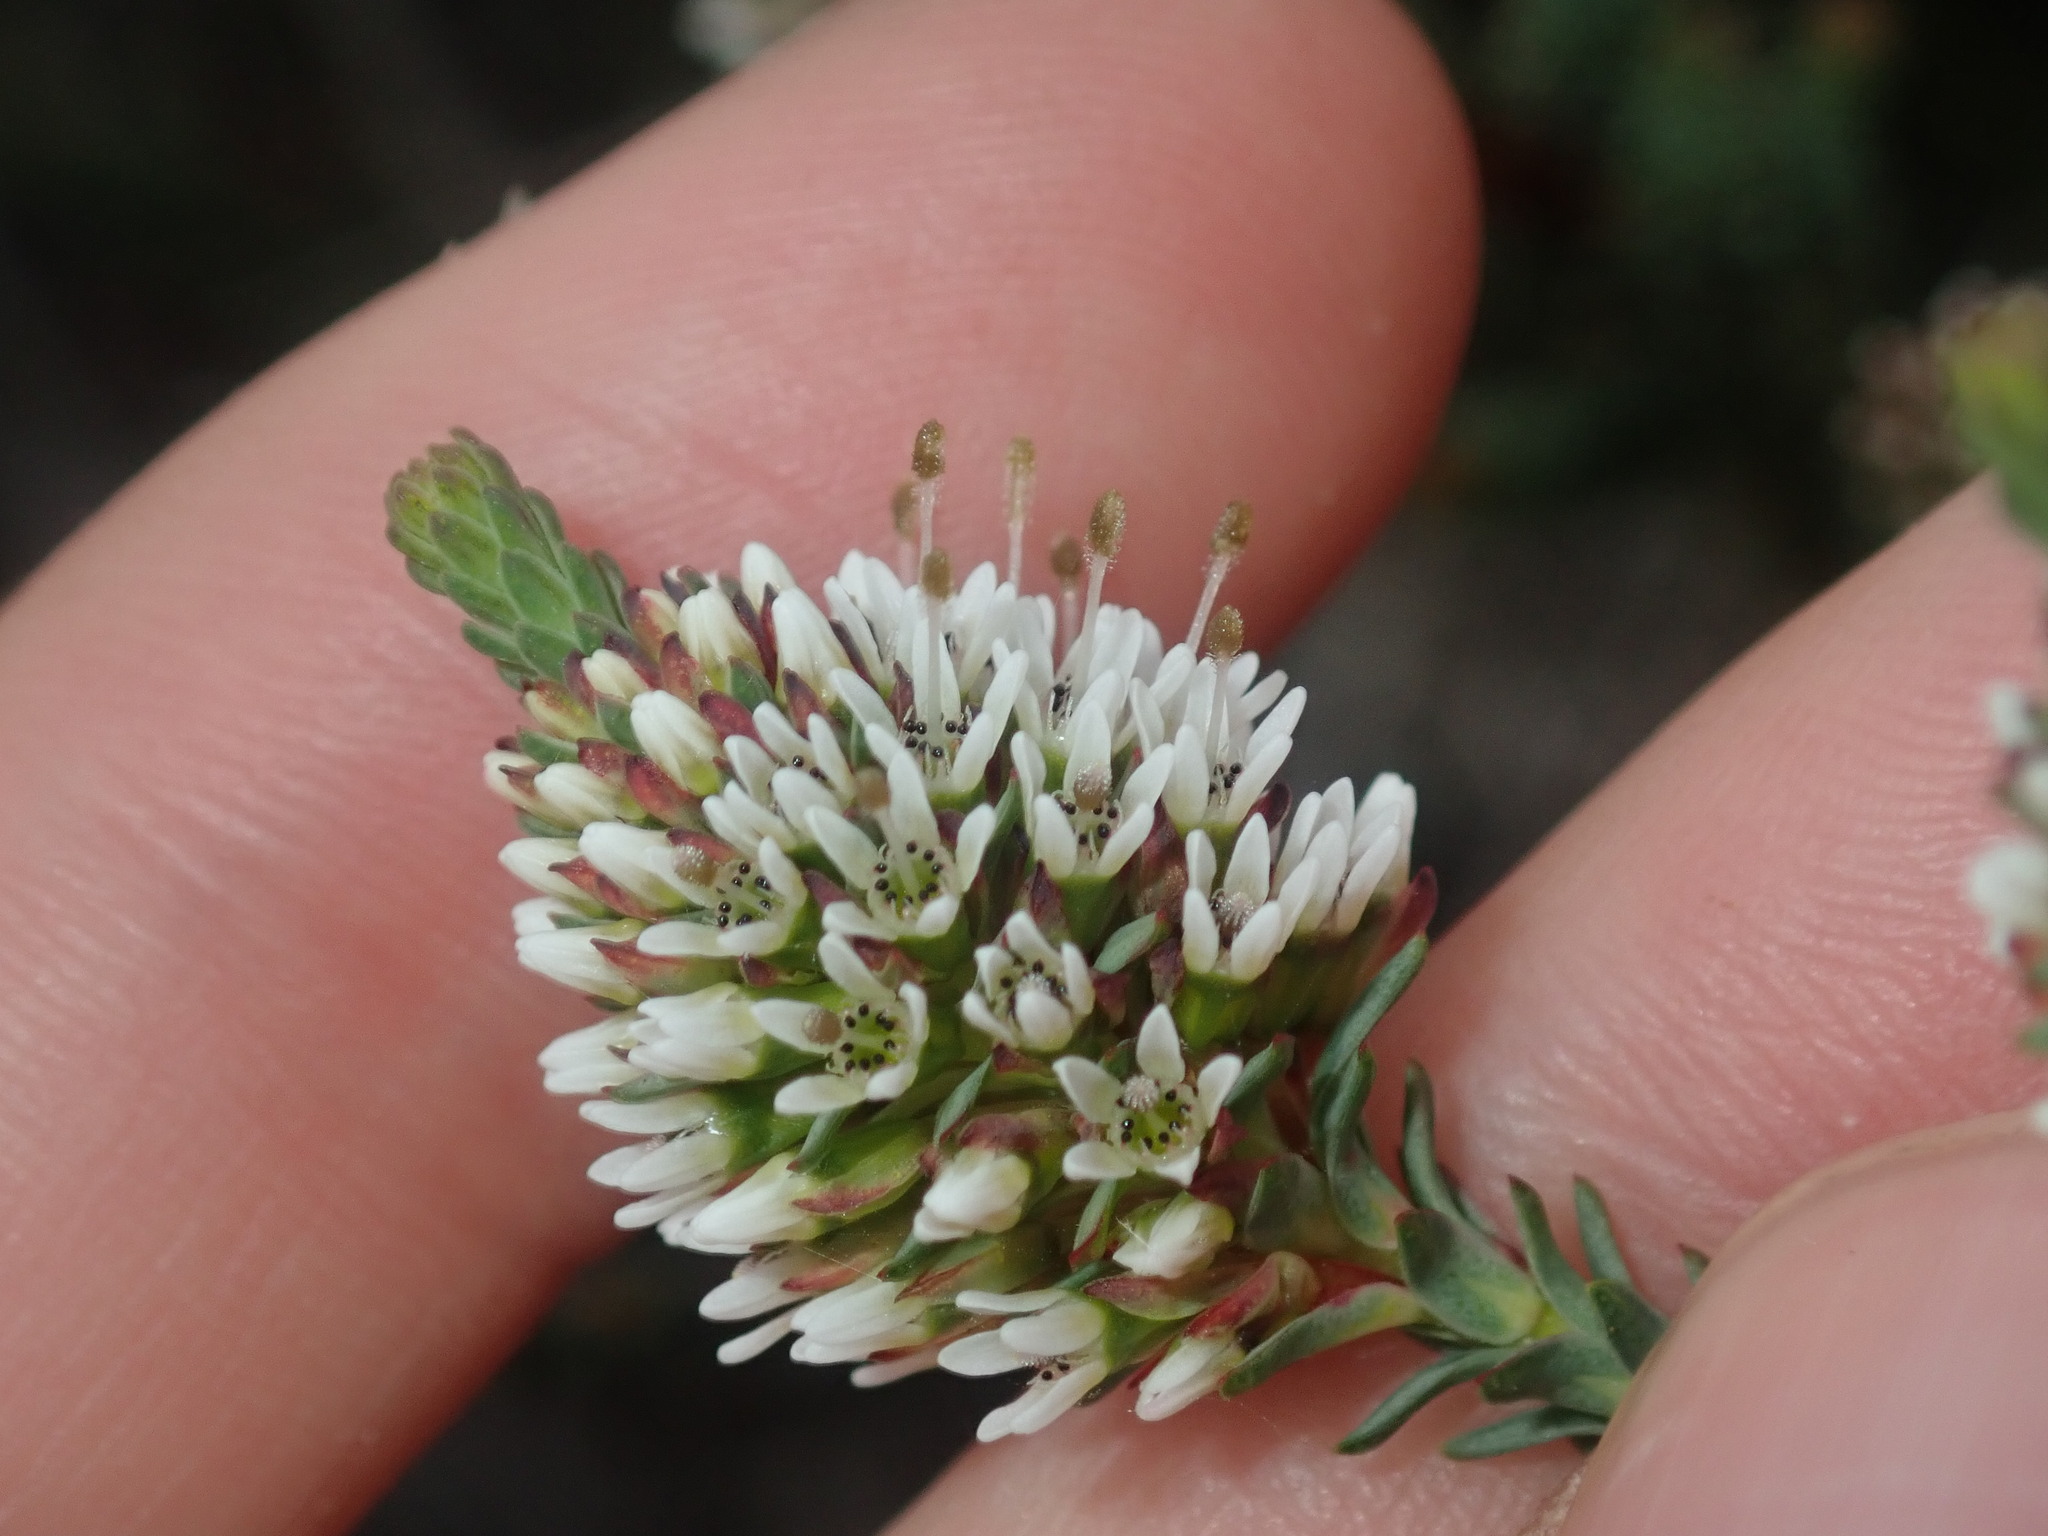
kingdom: Plantae
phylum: Tracheophyta
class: Magnoliopsida
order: Myrtales
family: Myrtaceae
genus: Darwinia
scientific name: Darwinia vestita
